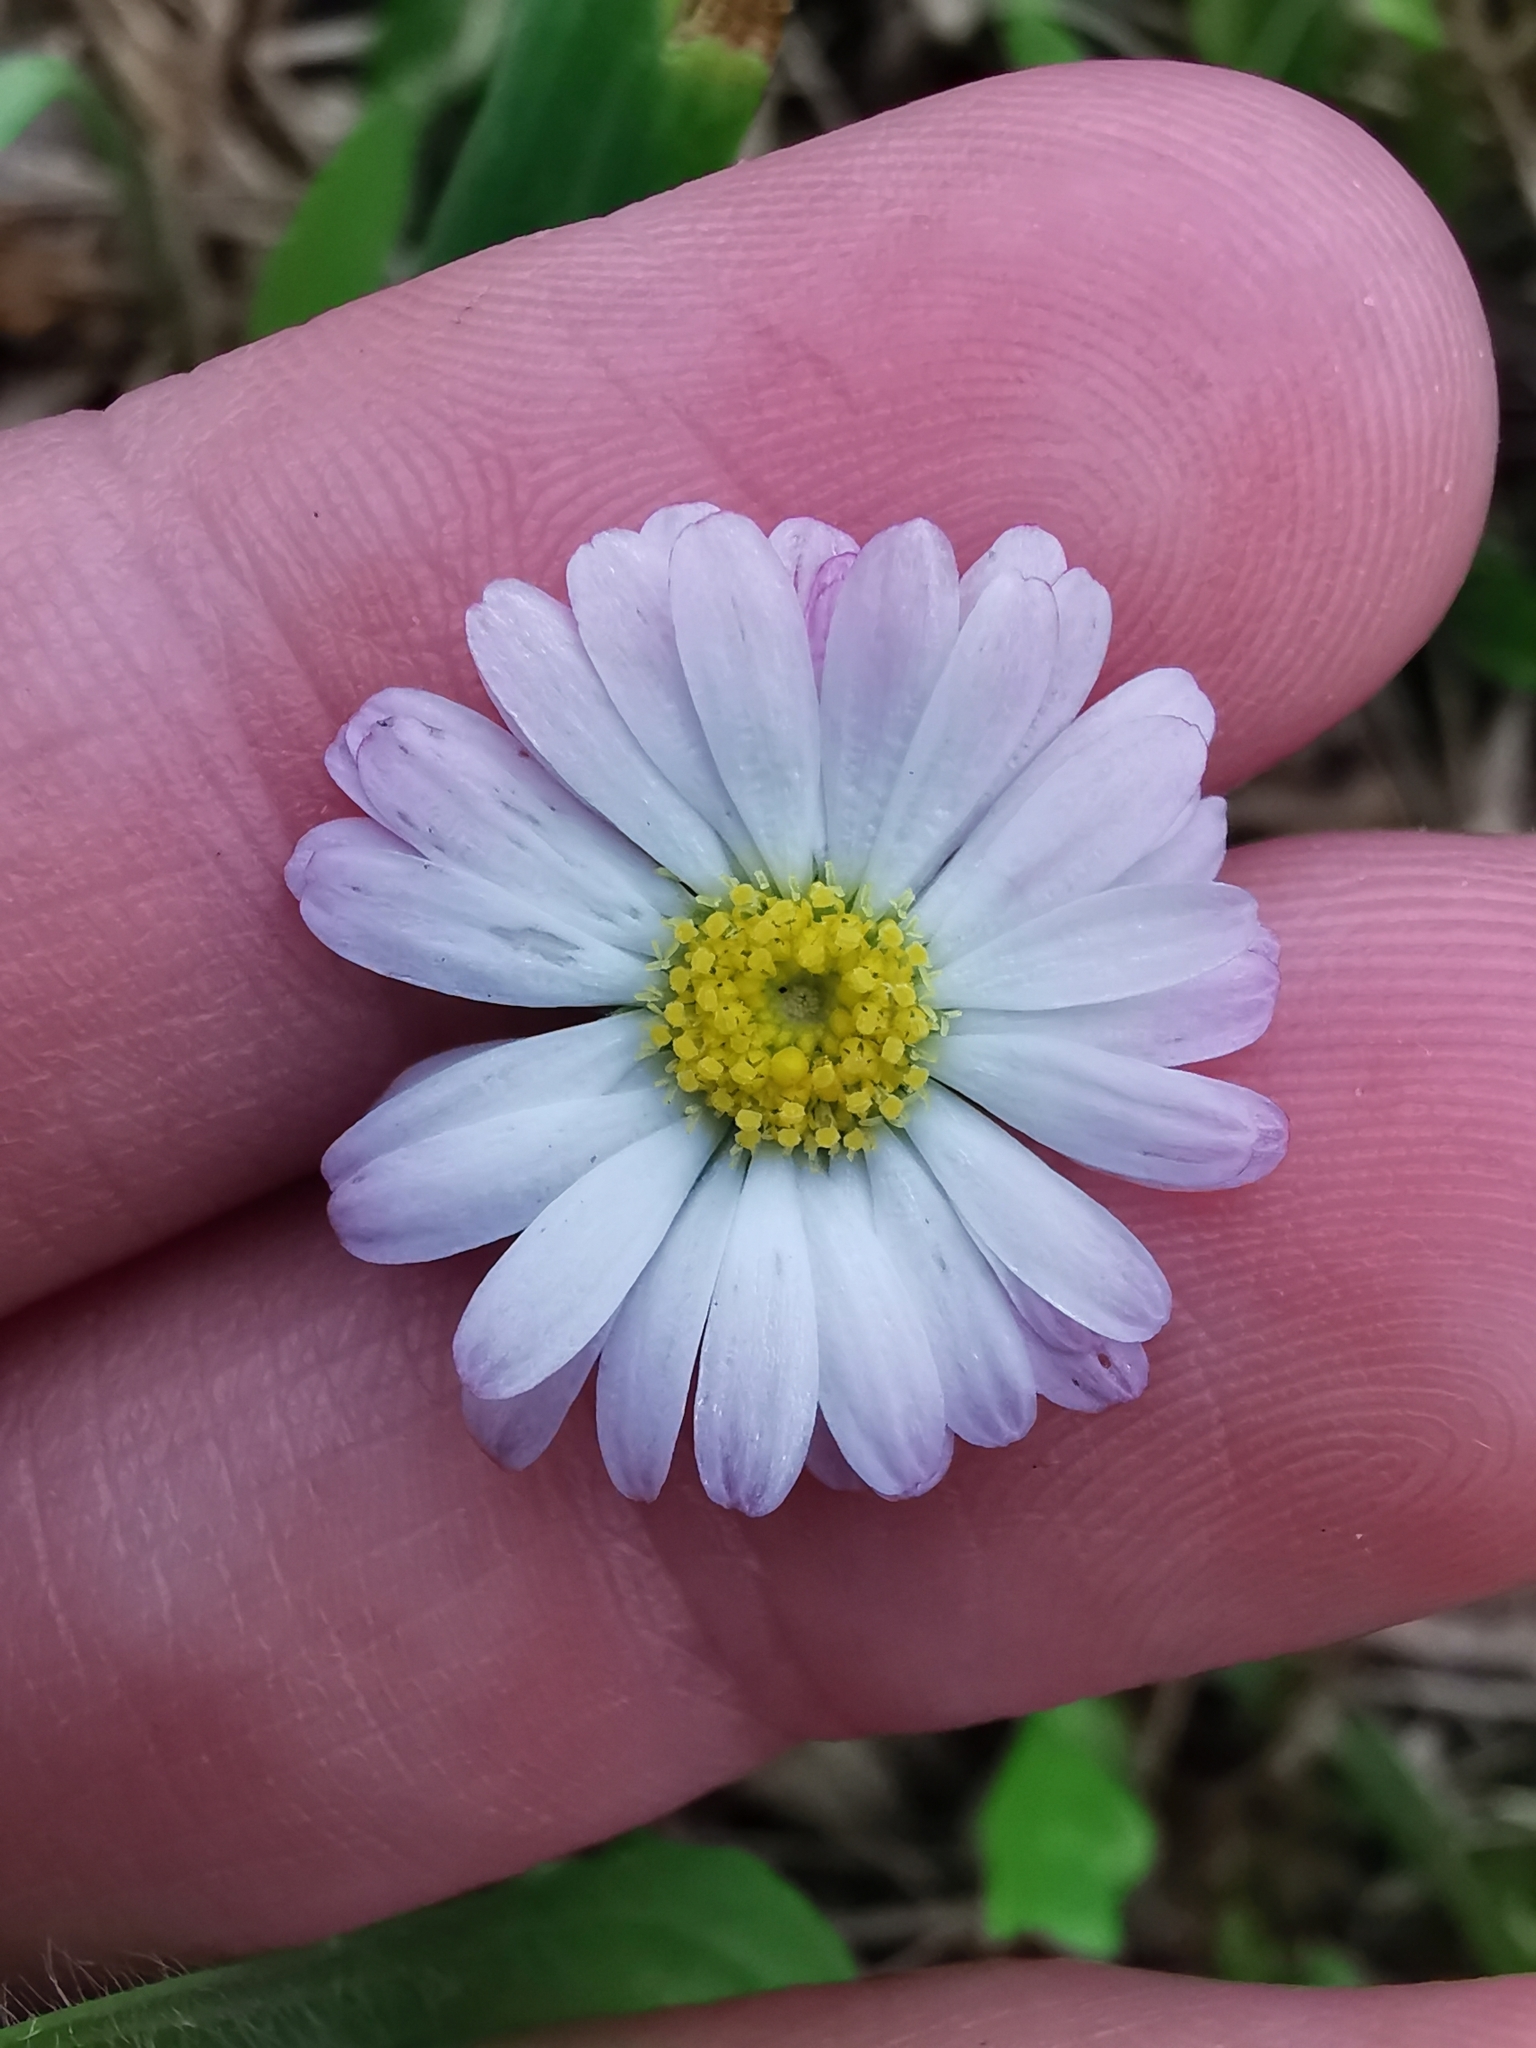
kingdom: Plantae
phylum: Tracheophyta
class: Magnoliopsida
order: Asterales
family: Asteraceae
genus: Bellis
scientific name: Bellis perennis
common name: Lawndaisy
